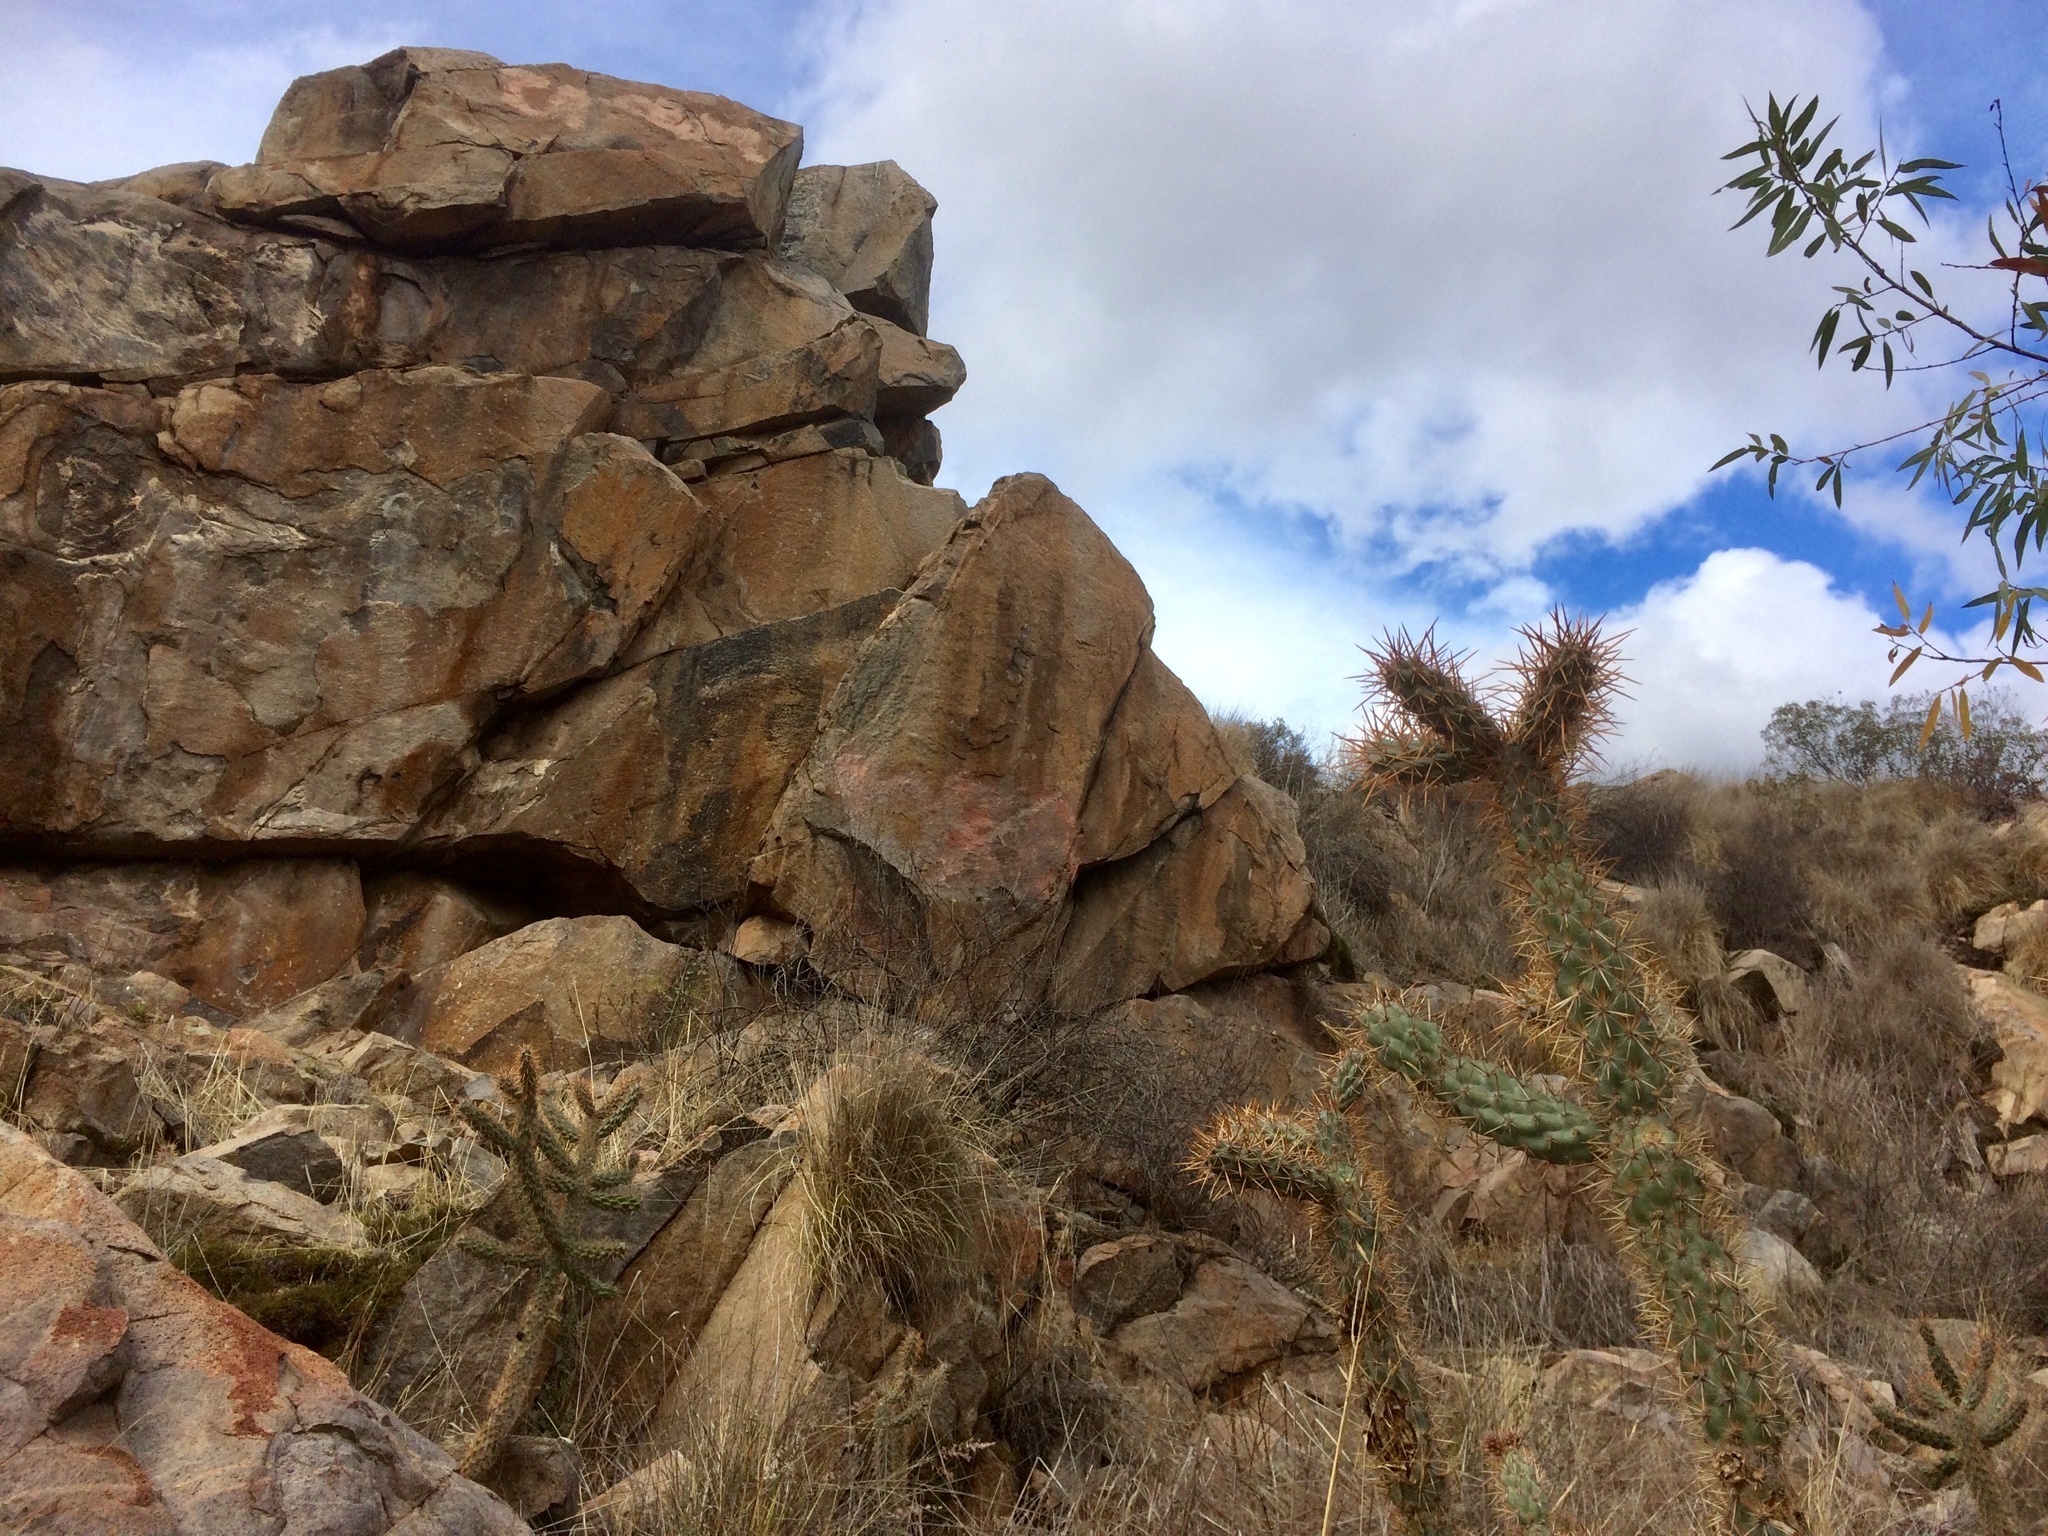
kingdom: Plantae
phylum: Tracheophyta
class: Magnoliopsida
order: Caryophyllales
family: Cactaceae
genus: Cylindropuntia
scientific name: Cylindropuntia prolifera
